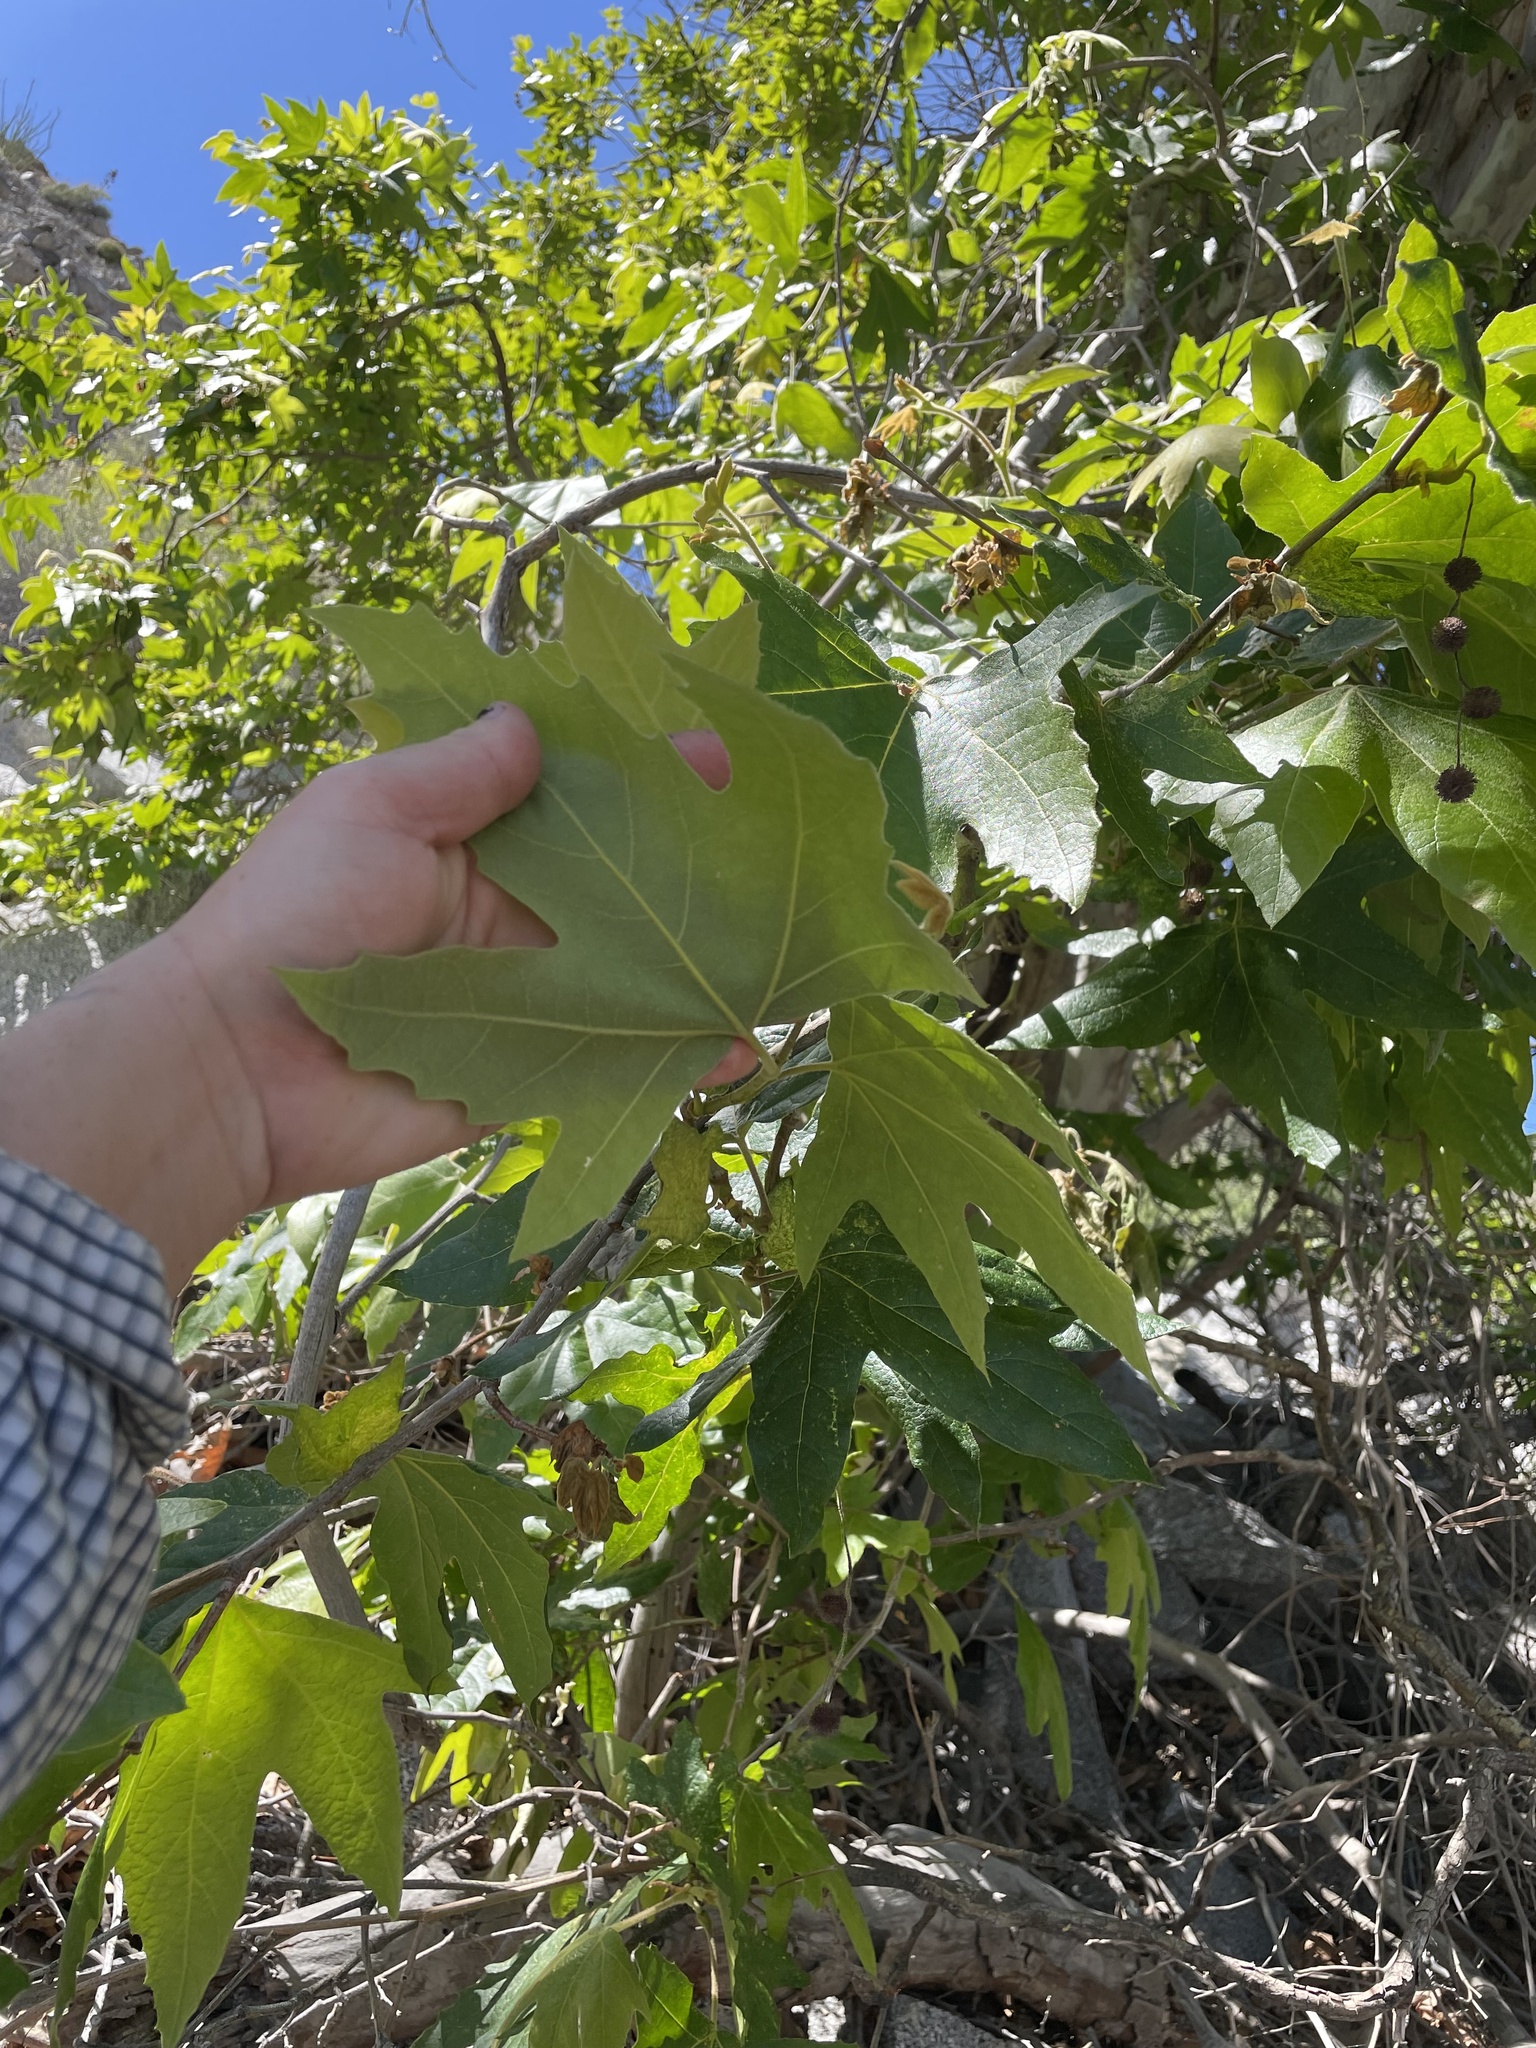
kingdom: Plantae
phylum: Tracheophyta
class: Magnoliopsida
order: Proteales
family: Platanaceae
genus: Platanus
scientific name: Platanus racemosa
